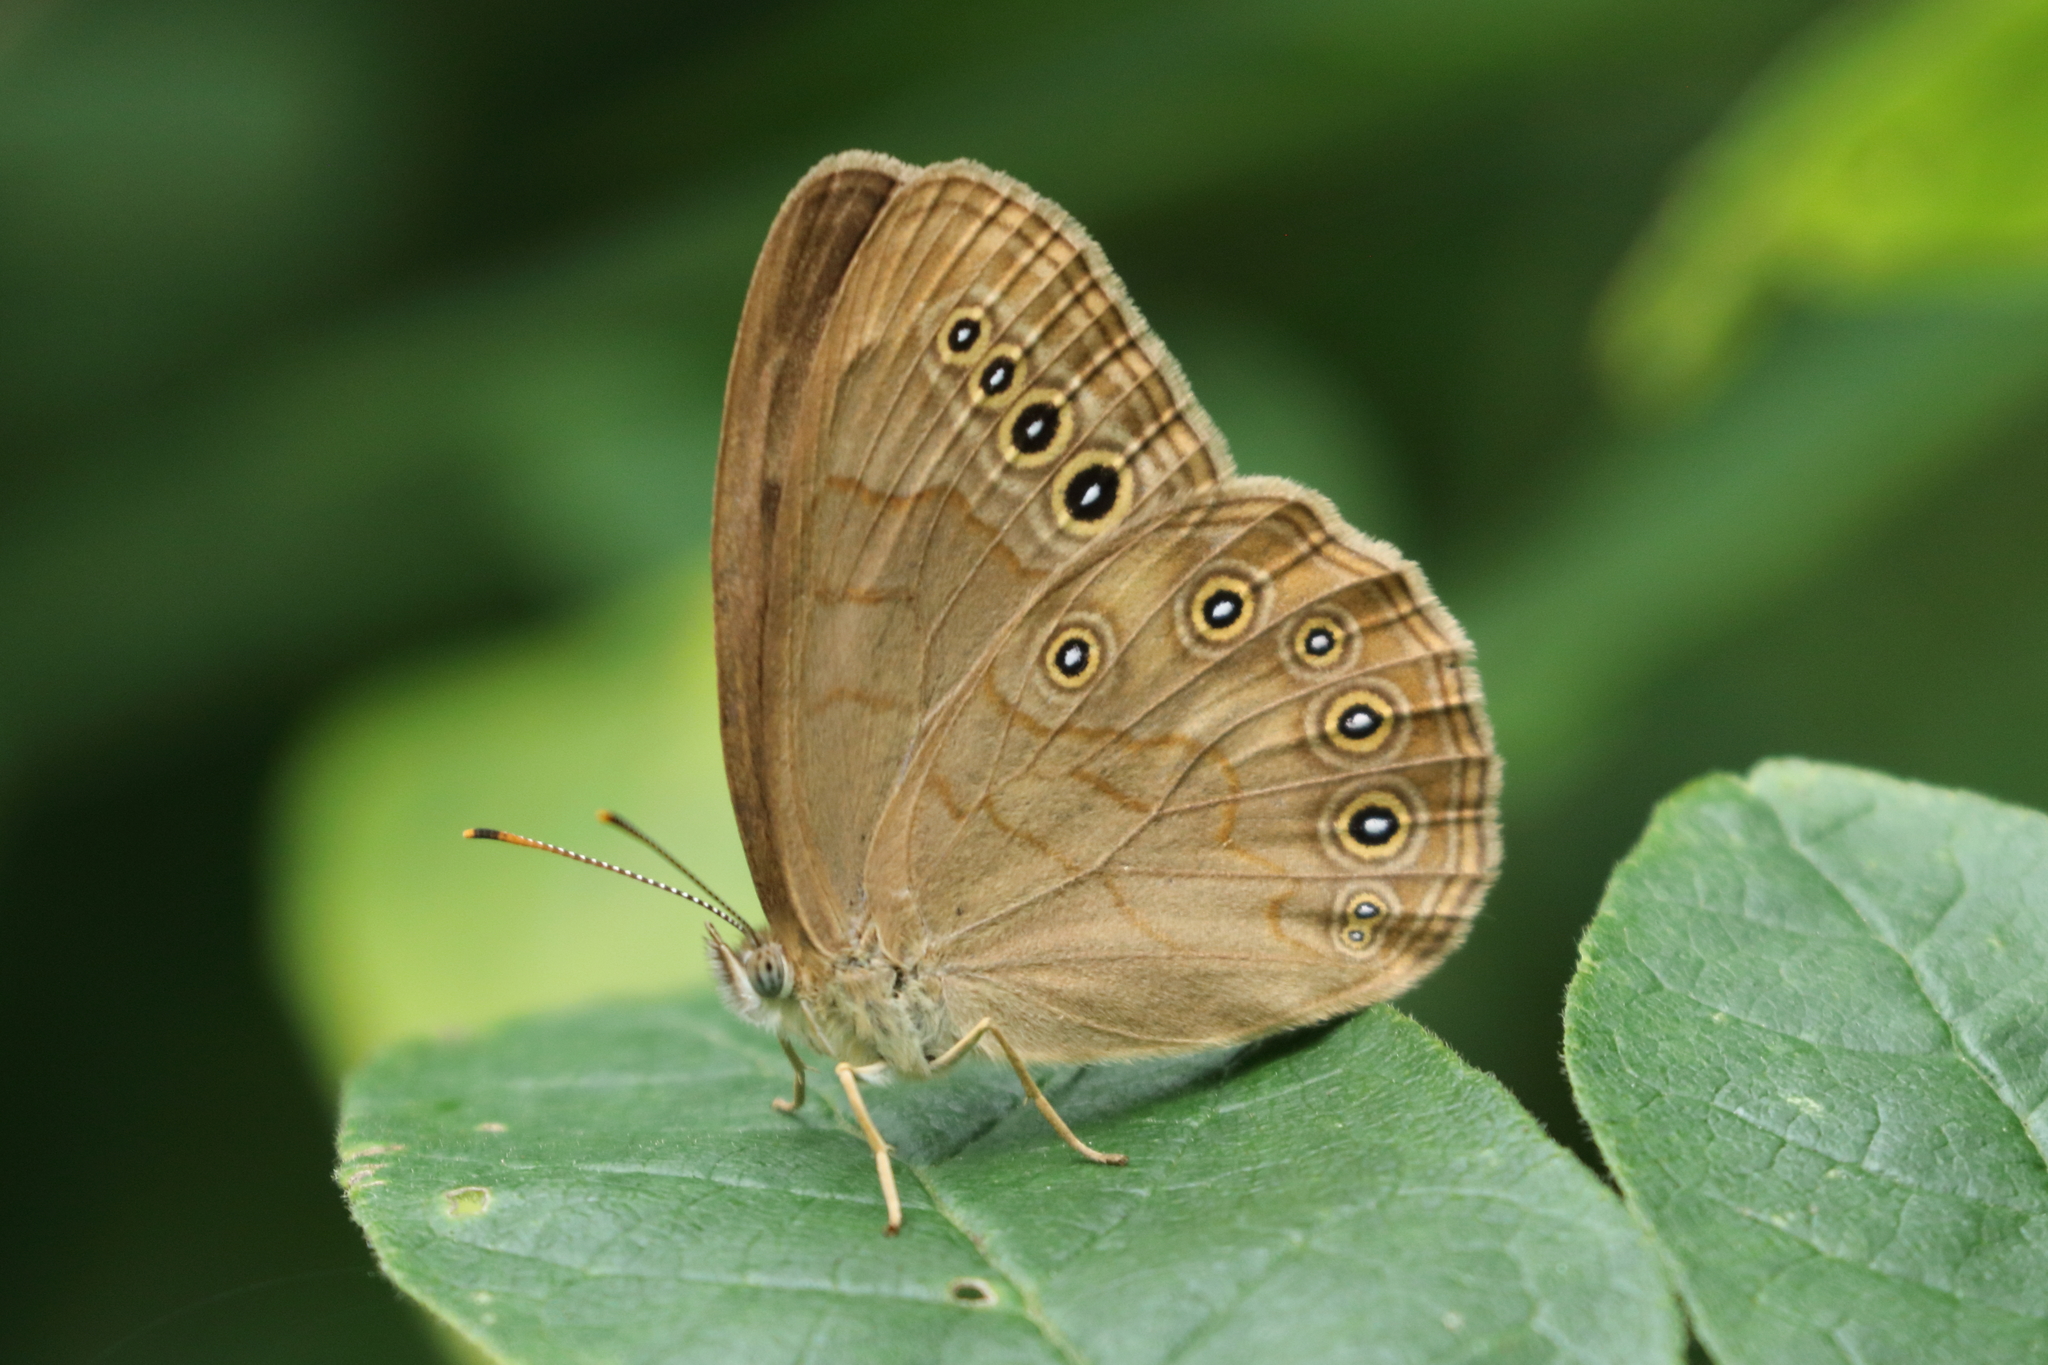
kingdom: Animalia
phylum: Arthropoda
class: Insecta
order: Lepidoptera
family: Nymphalidae
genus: Lethe
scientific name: Lethe eurydice
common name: Eyed brown
